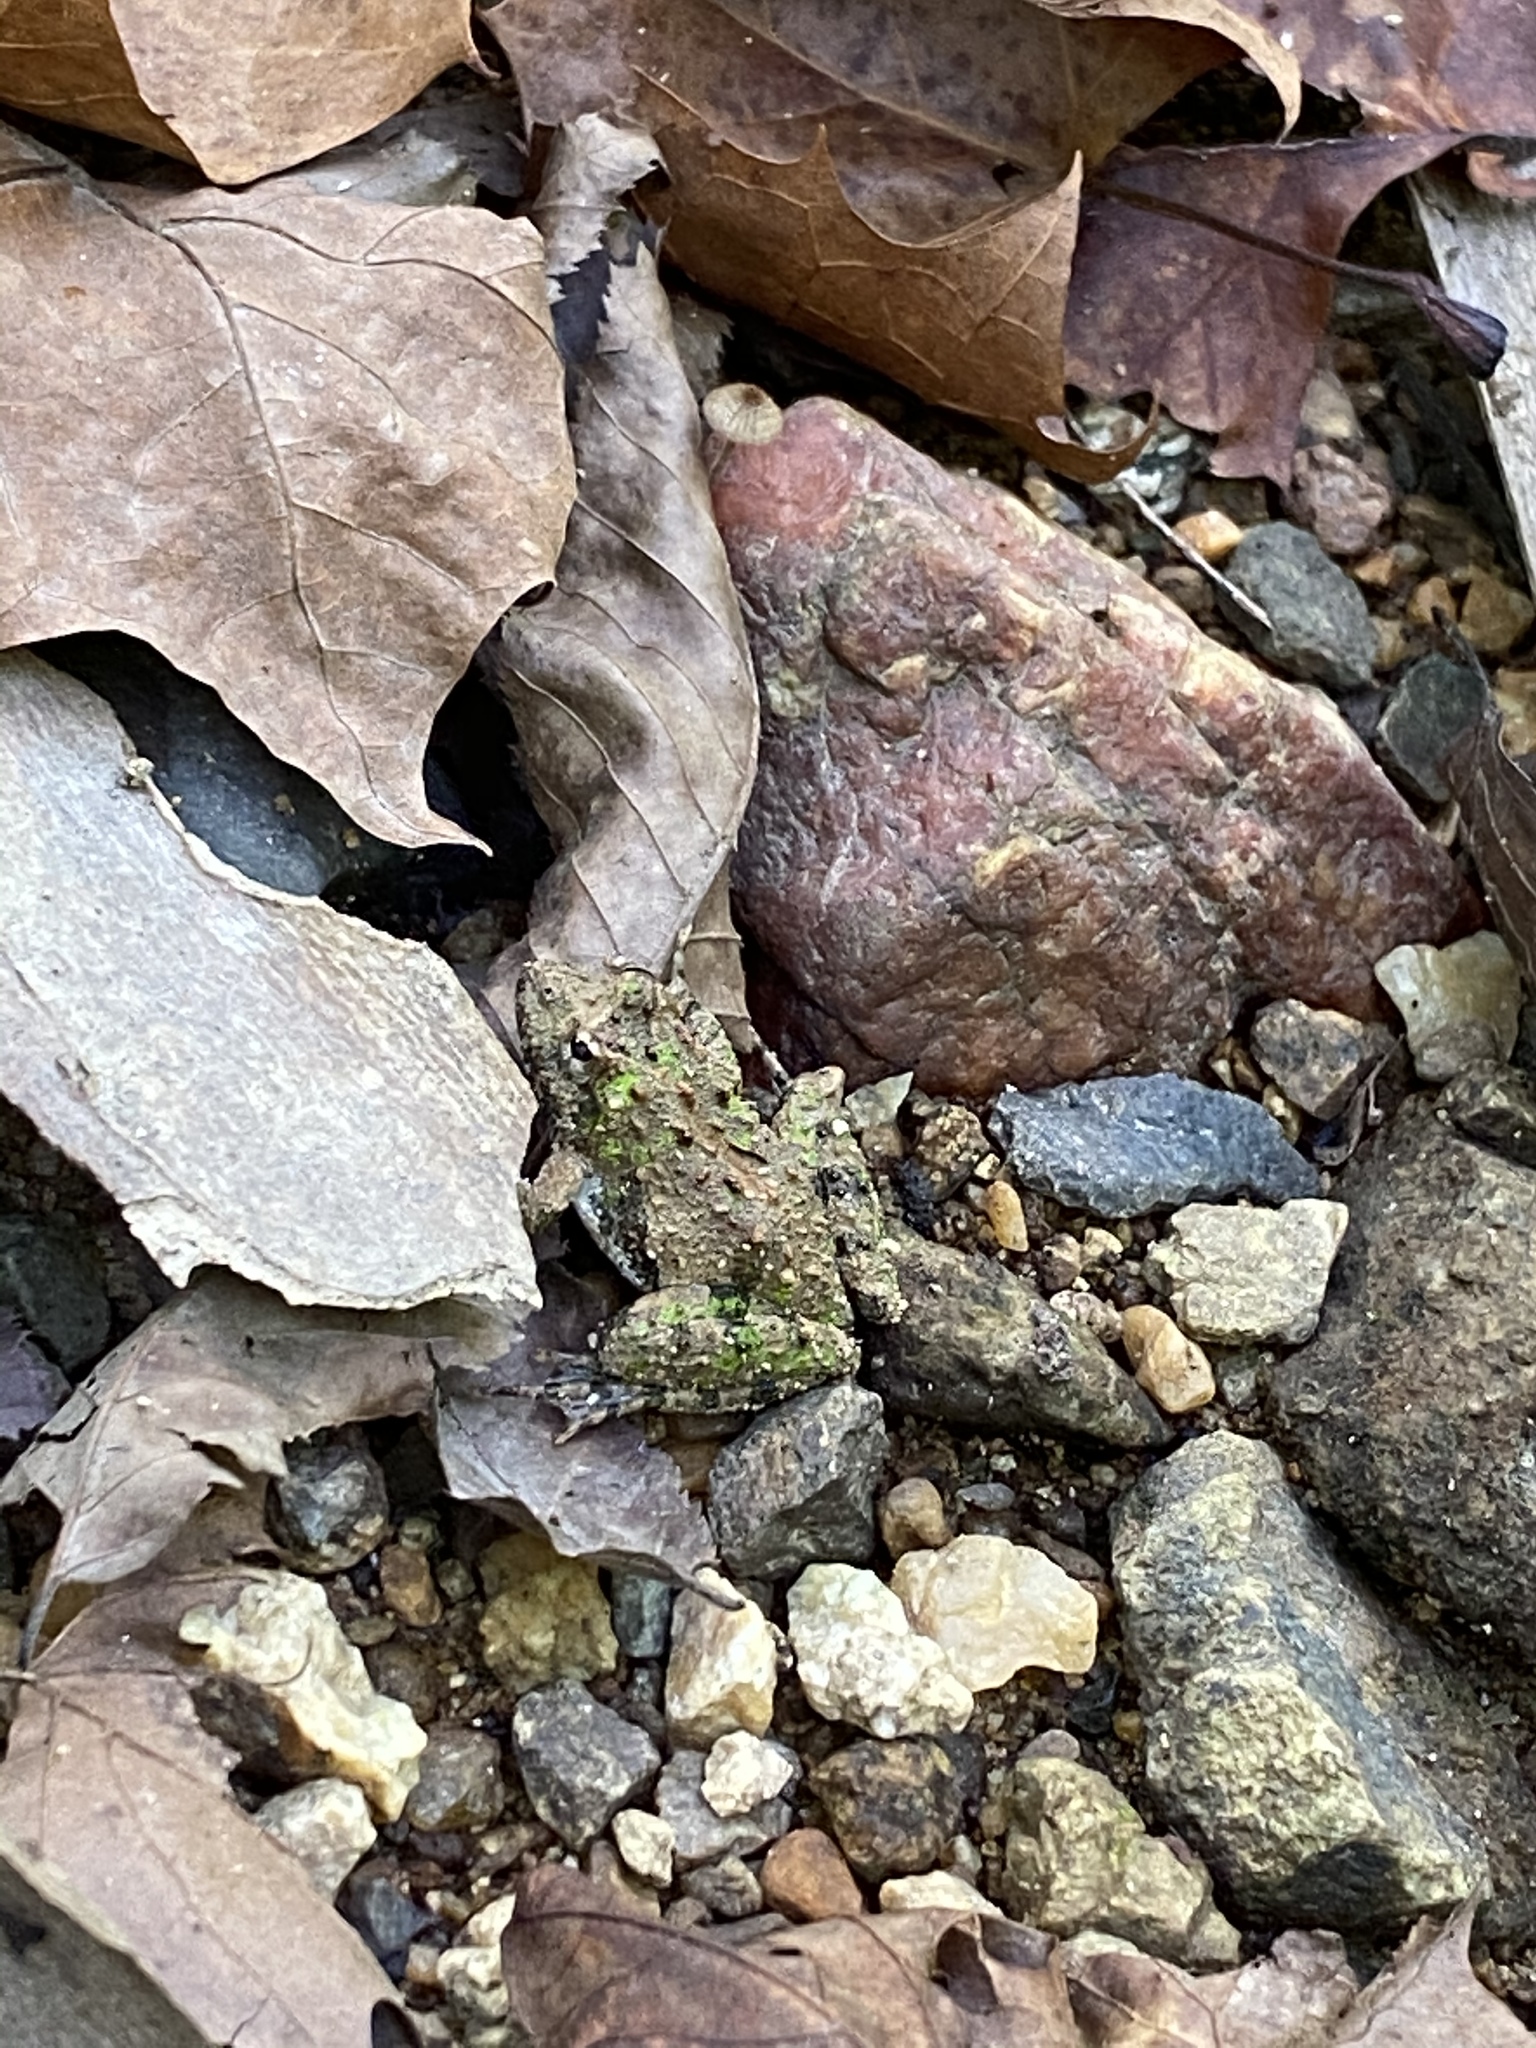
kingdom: Animalia
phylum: Chordata
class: Amphibia
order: Anura
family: Hylidae
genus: Acris
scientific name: Acris crepitans
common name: Northern cricket frog
